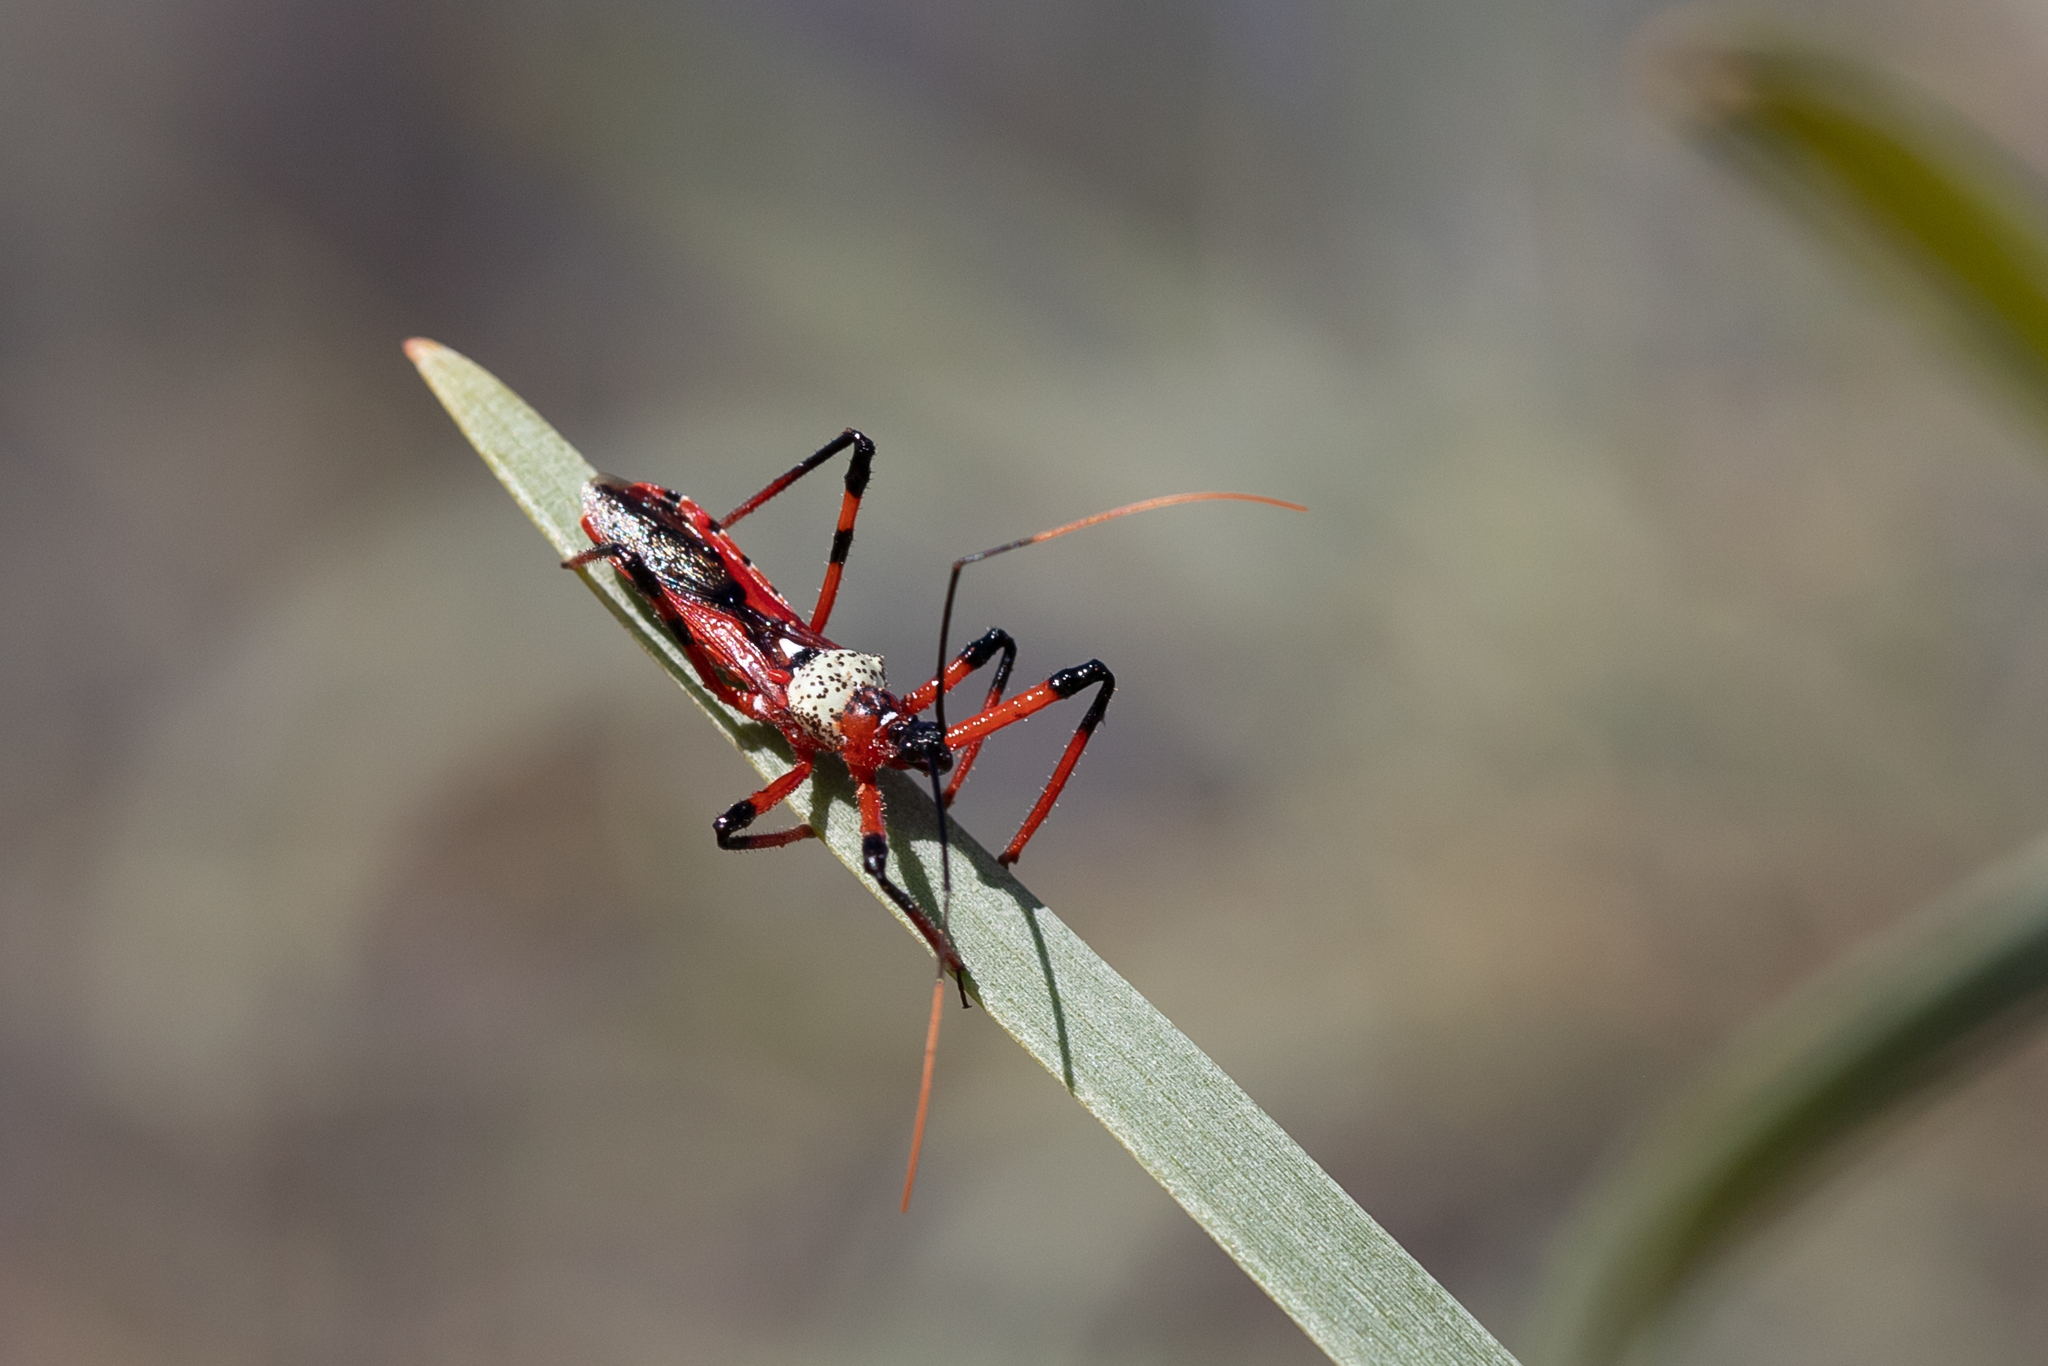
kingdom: Animalia
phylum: Arthropoda
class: Insecta
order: Hemiptera
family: Reduviidae
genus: Poecilosphodrus
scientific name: Poecilosphodrus gratiosus
